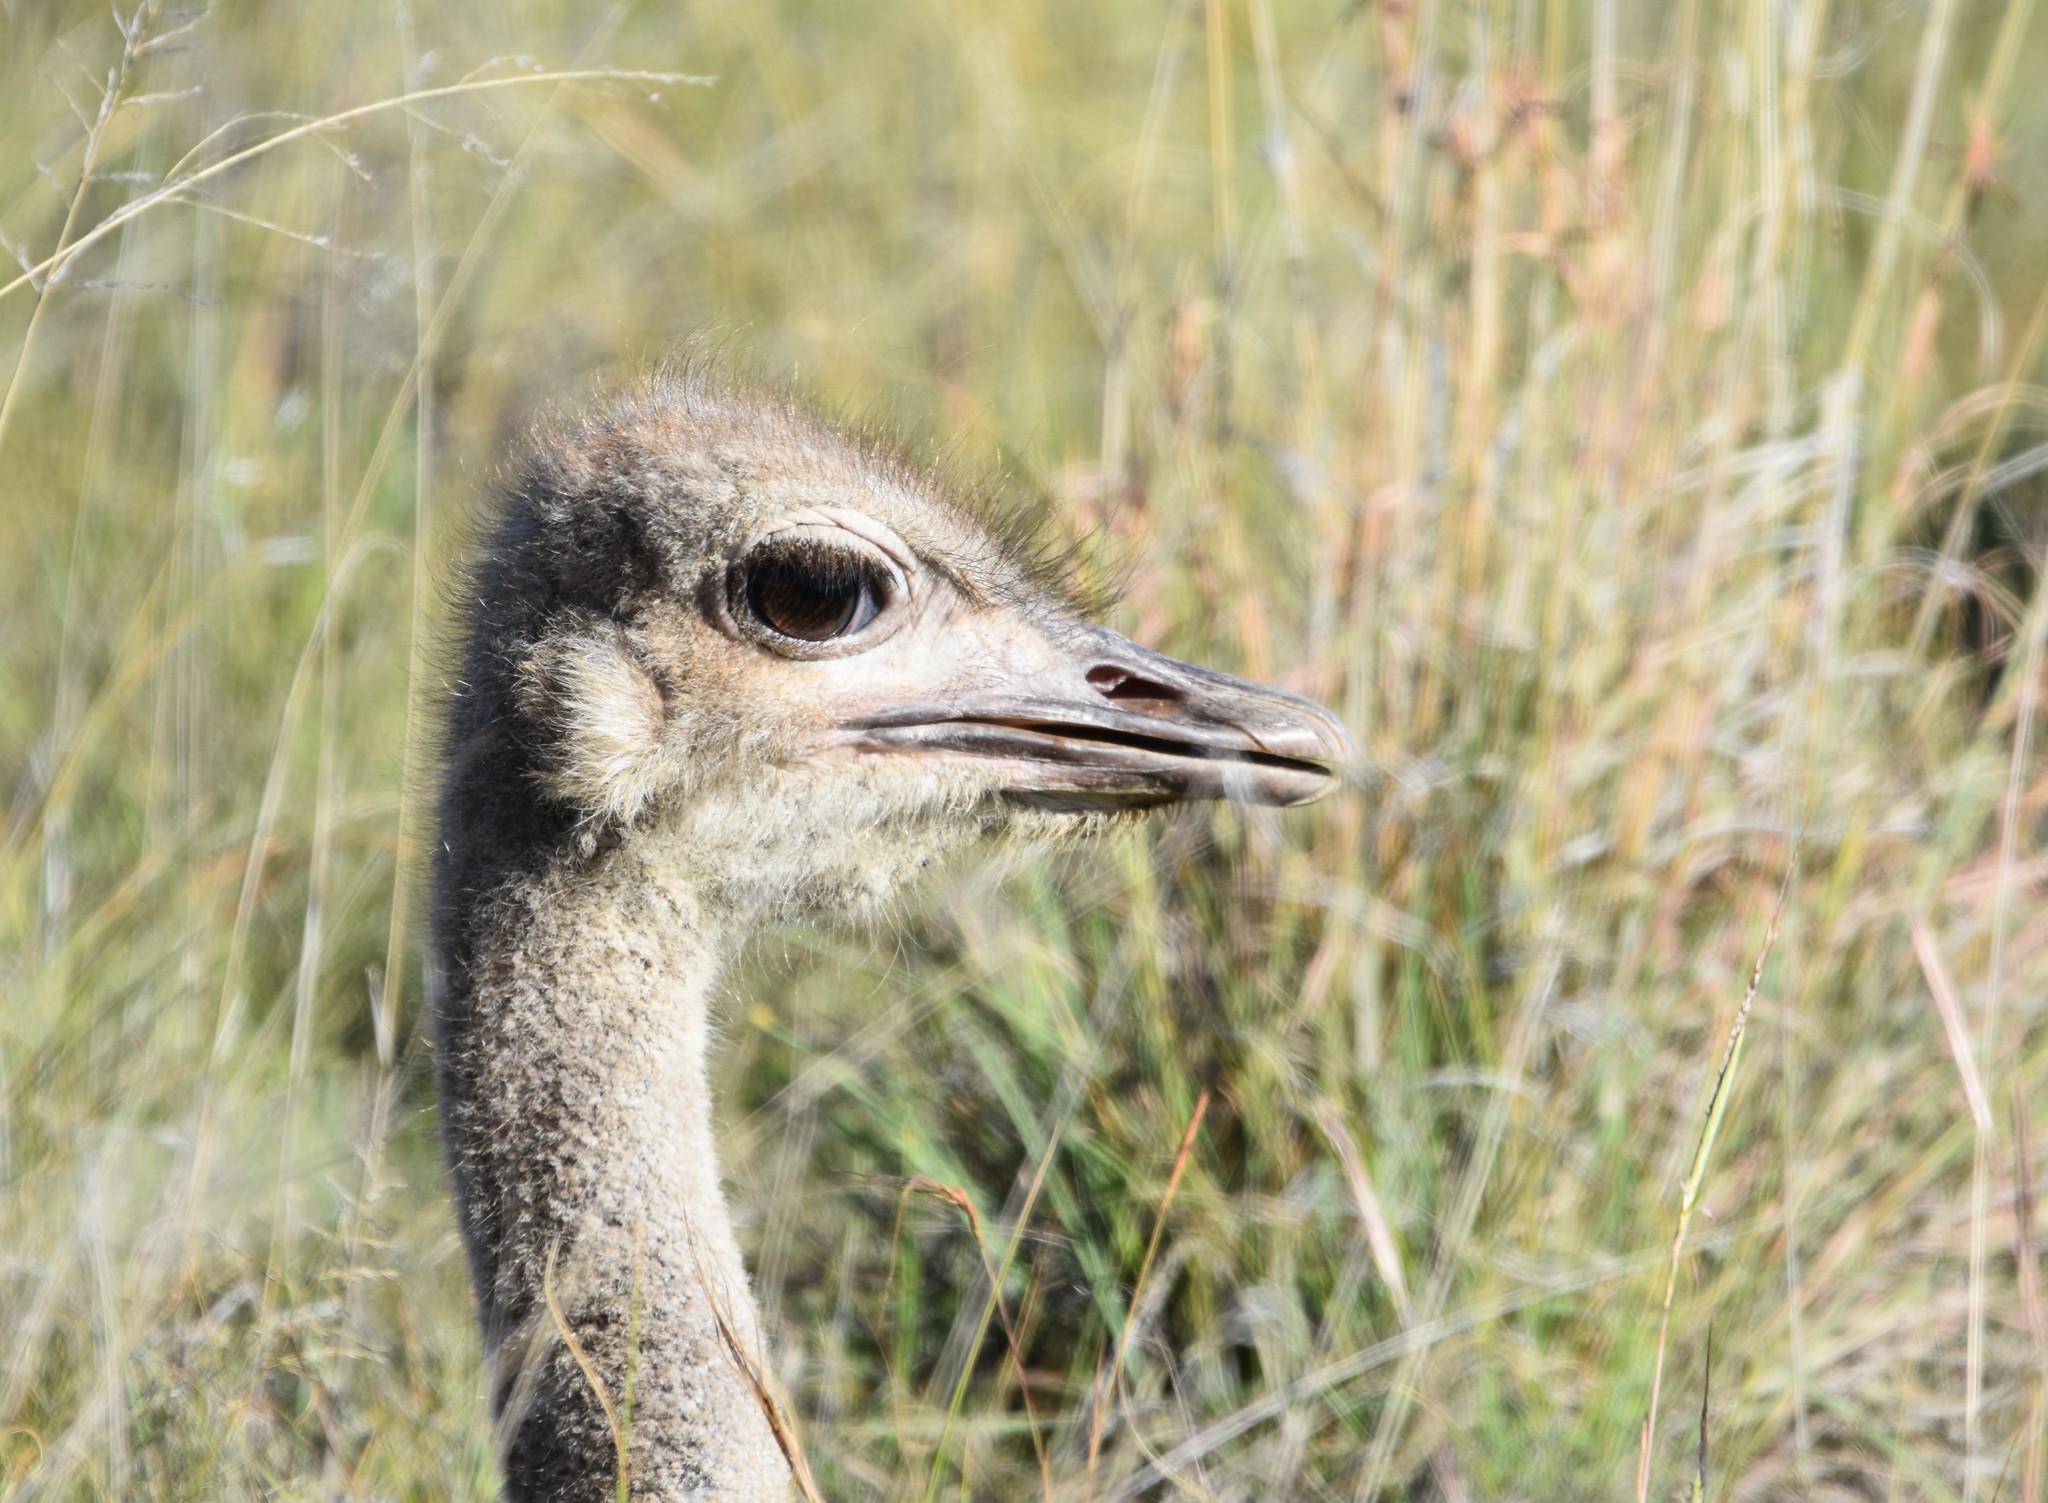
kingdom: Animalia
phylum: Chordata
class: Aves
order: Struthioniformes
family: Struthionidae
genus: Struthio
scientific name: Struthio camelus
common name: Common ostrich
